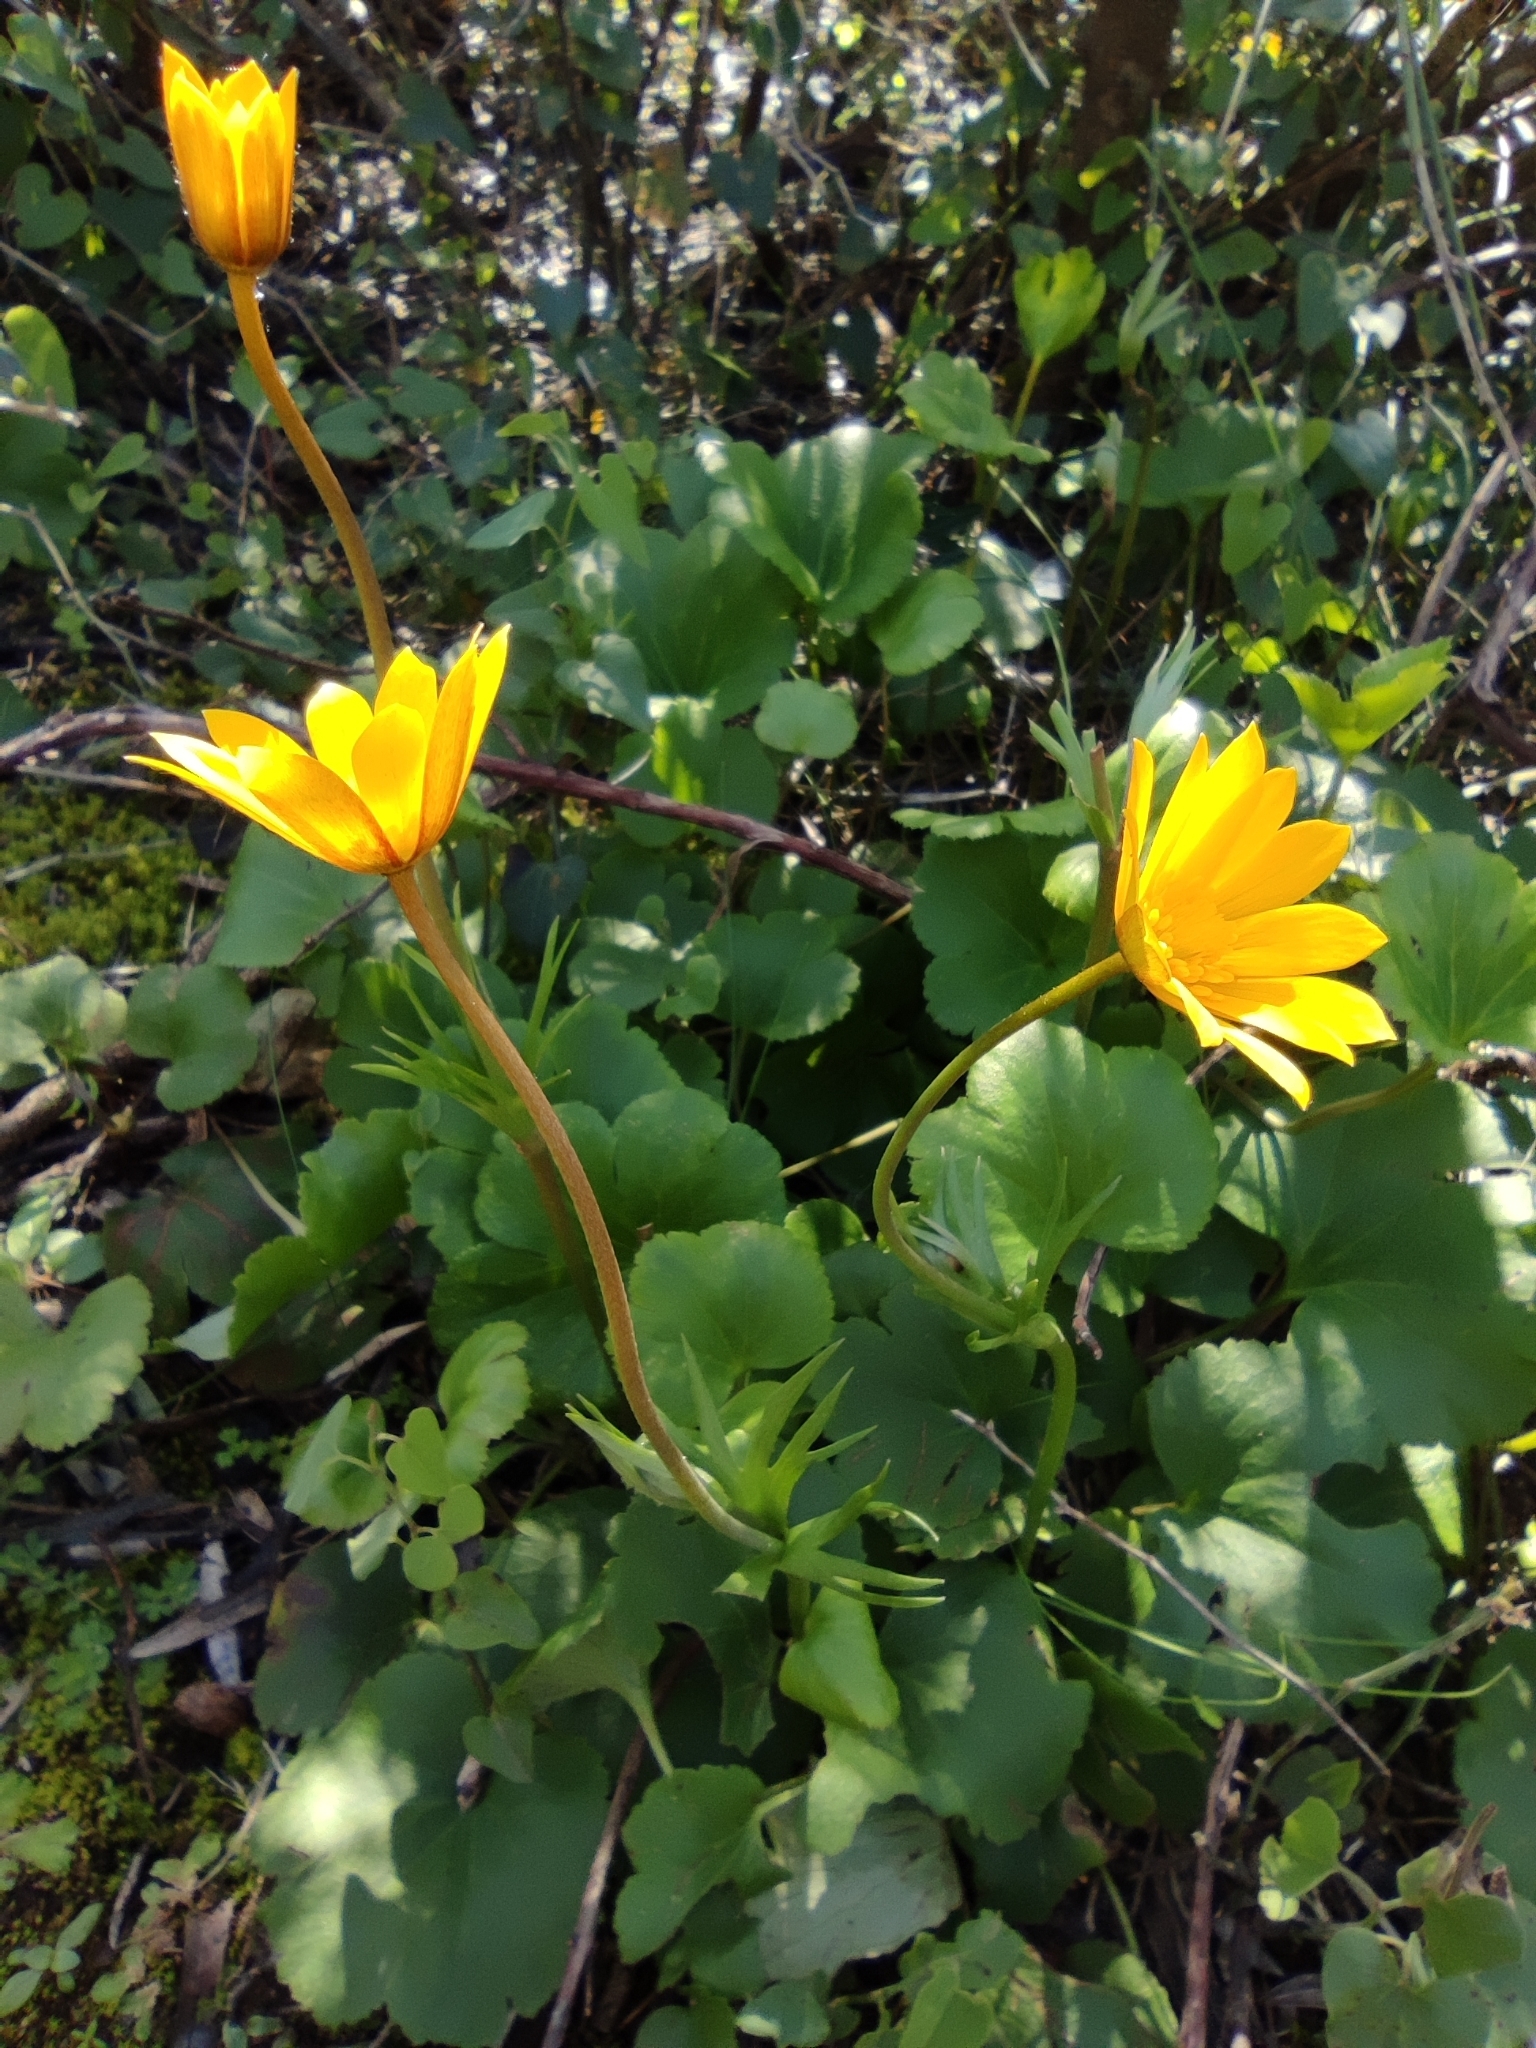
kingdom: Plantae
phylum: Tracheophyta
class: Magnoliopsida
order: Ranunculales
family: Ranunculaceae
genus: Anemone
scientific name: Anemone palmata
